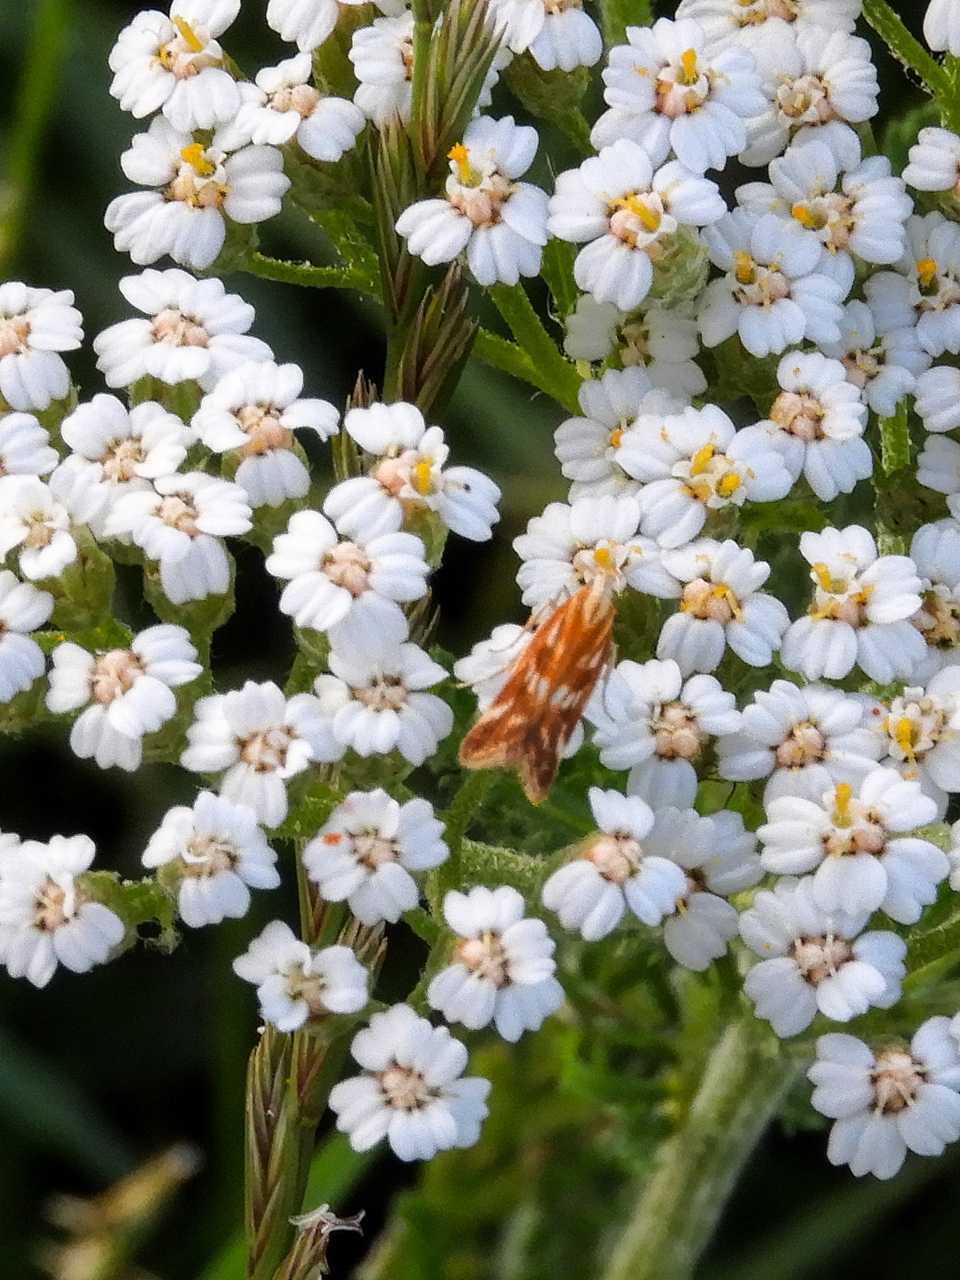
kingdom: Animalia
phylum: Arthropoda
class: Insecta
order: Lepidoptera
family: Gelechiidae
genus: Mirificarma
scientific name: Mirificarma eburnella
